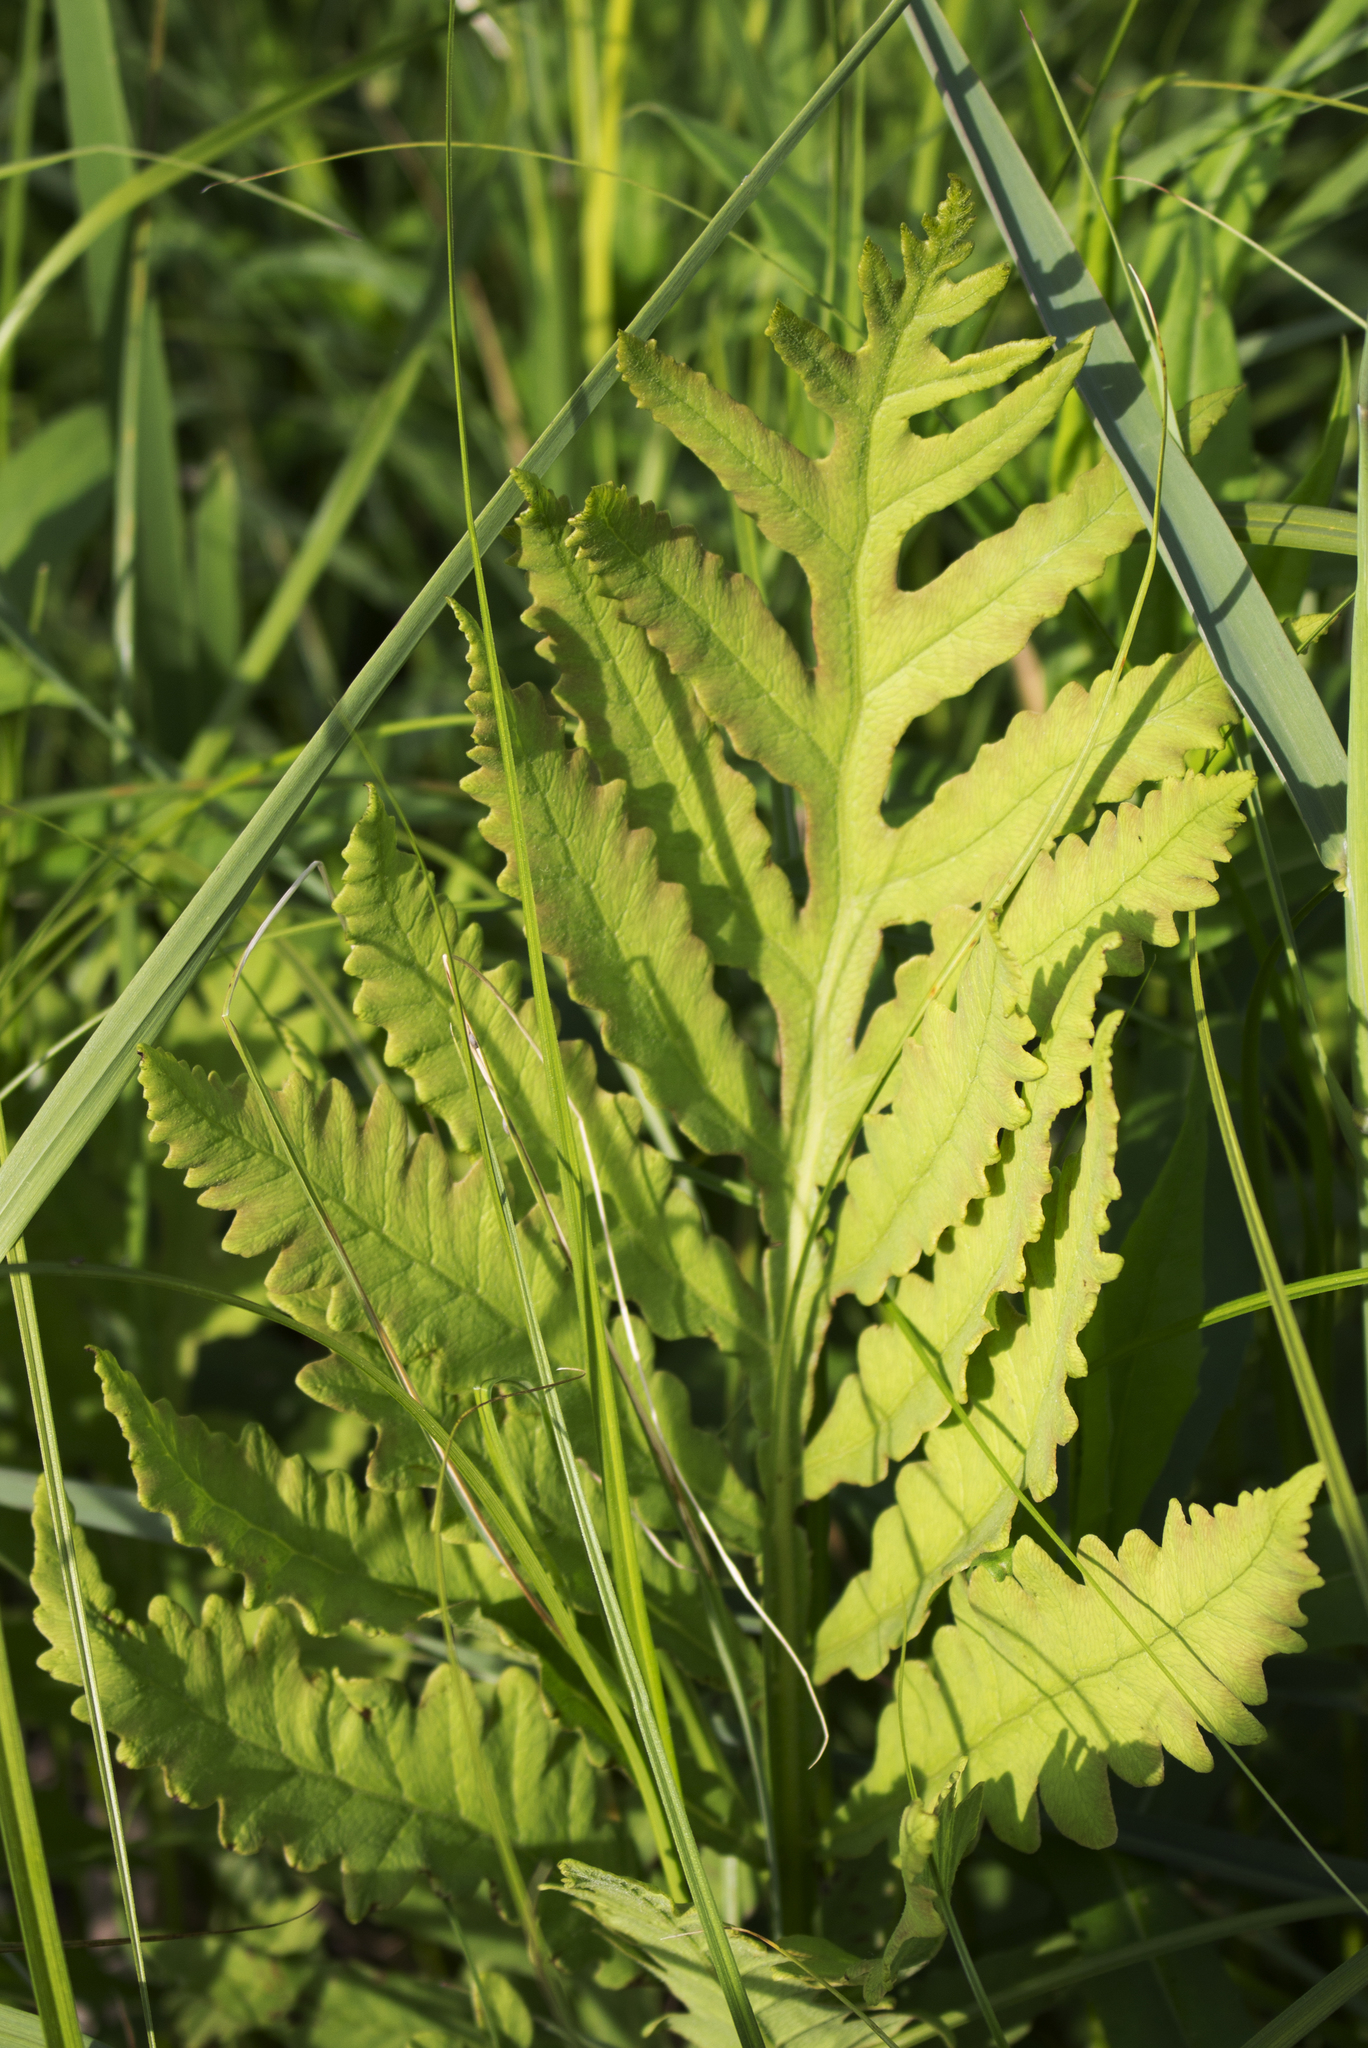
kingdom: Plantae
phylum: Tracheophyta
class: Polypodiopsida
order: Polypodiales
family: Onocleaceae
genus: Onoclea
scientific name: Onoclea sensibilis
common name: Sensitive fern
